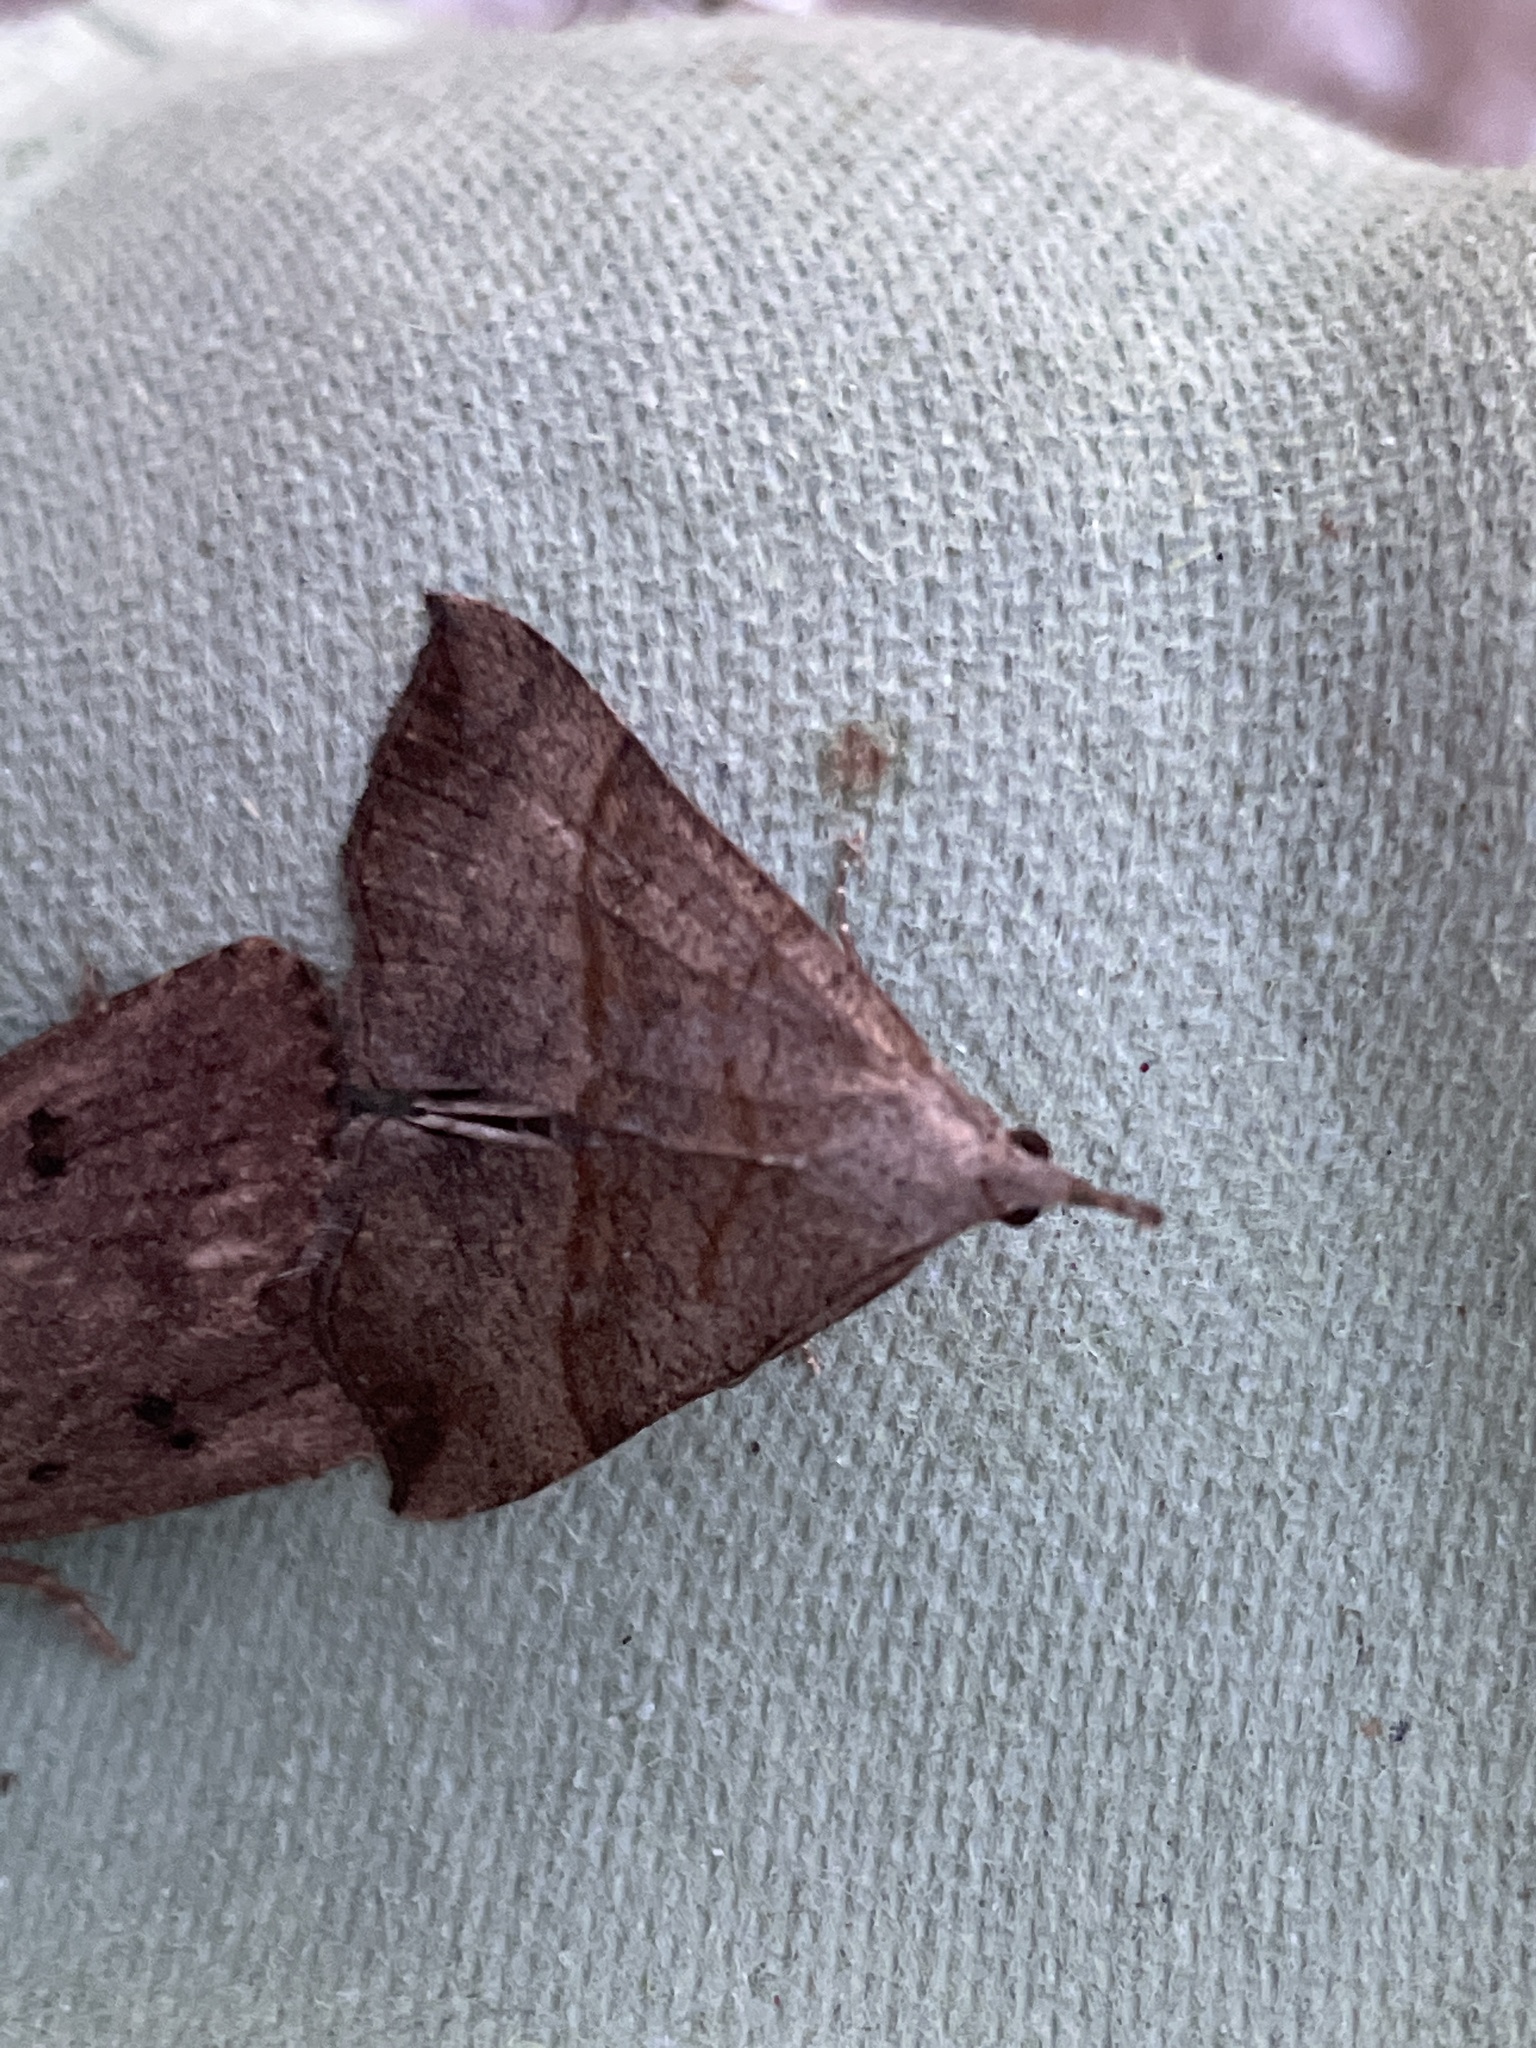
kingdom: Animalia
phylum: Arthropoda
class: Insecta
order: Lepidoptera
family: Erebidae
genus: Hypena
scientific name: Hypena proboscidalis
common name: Snout
